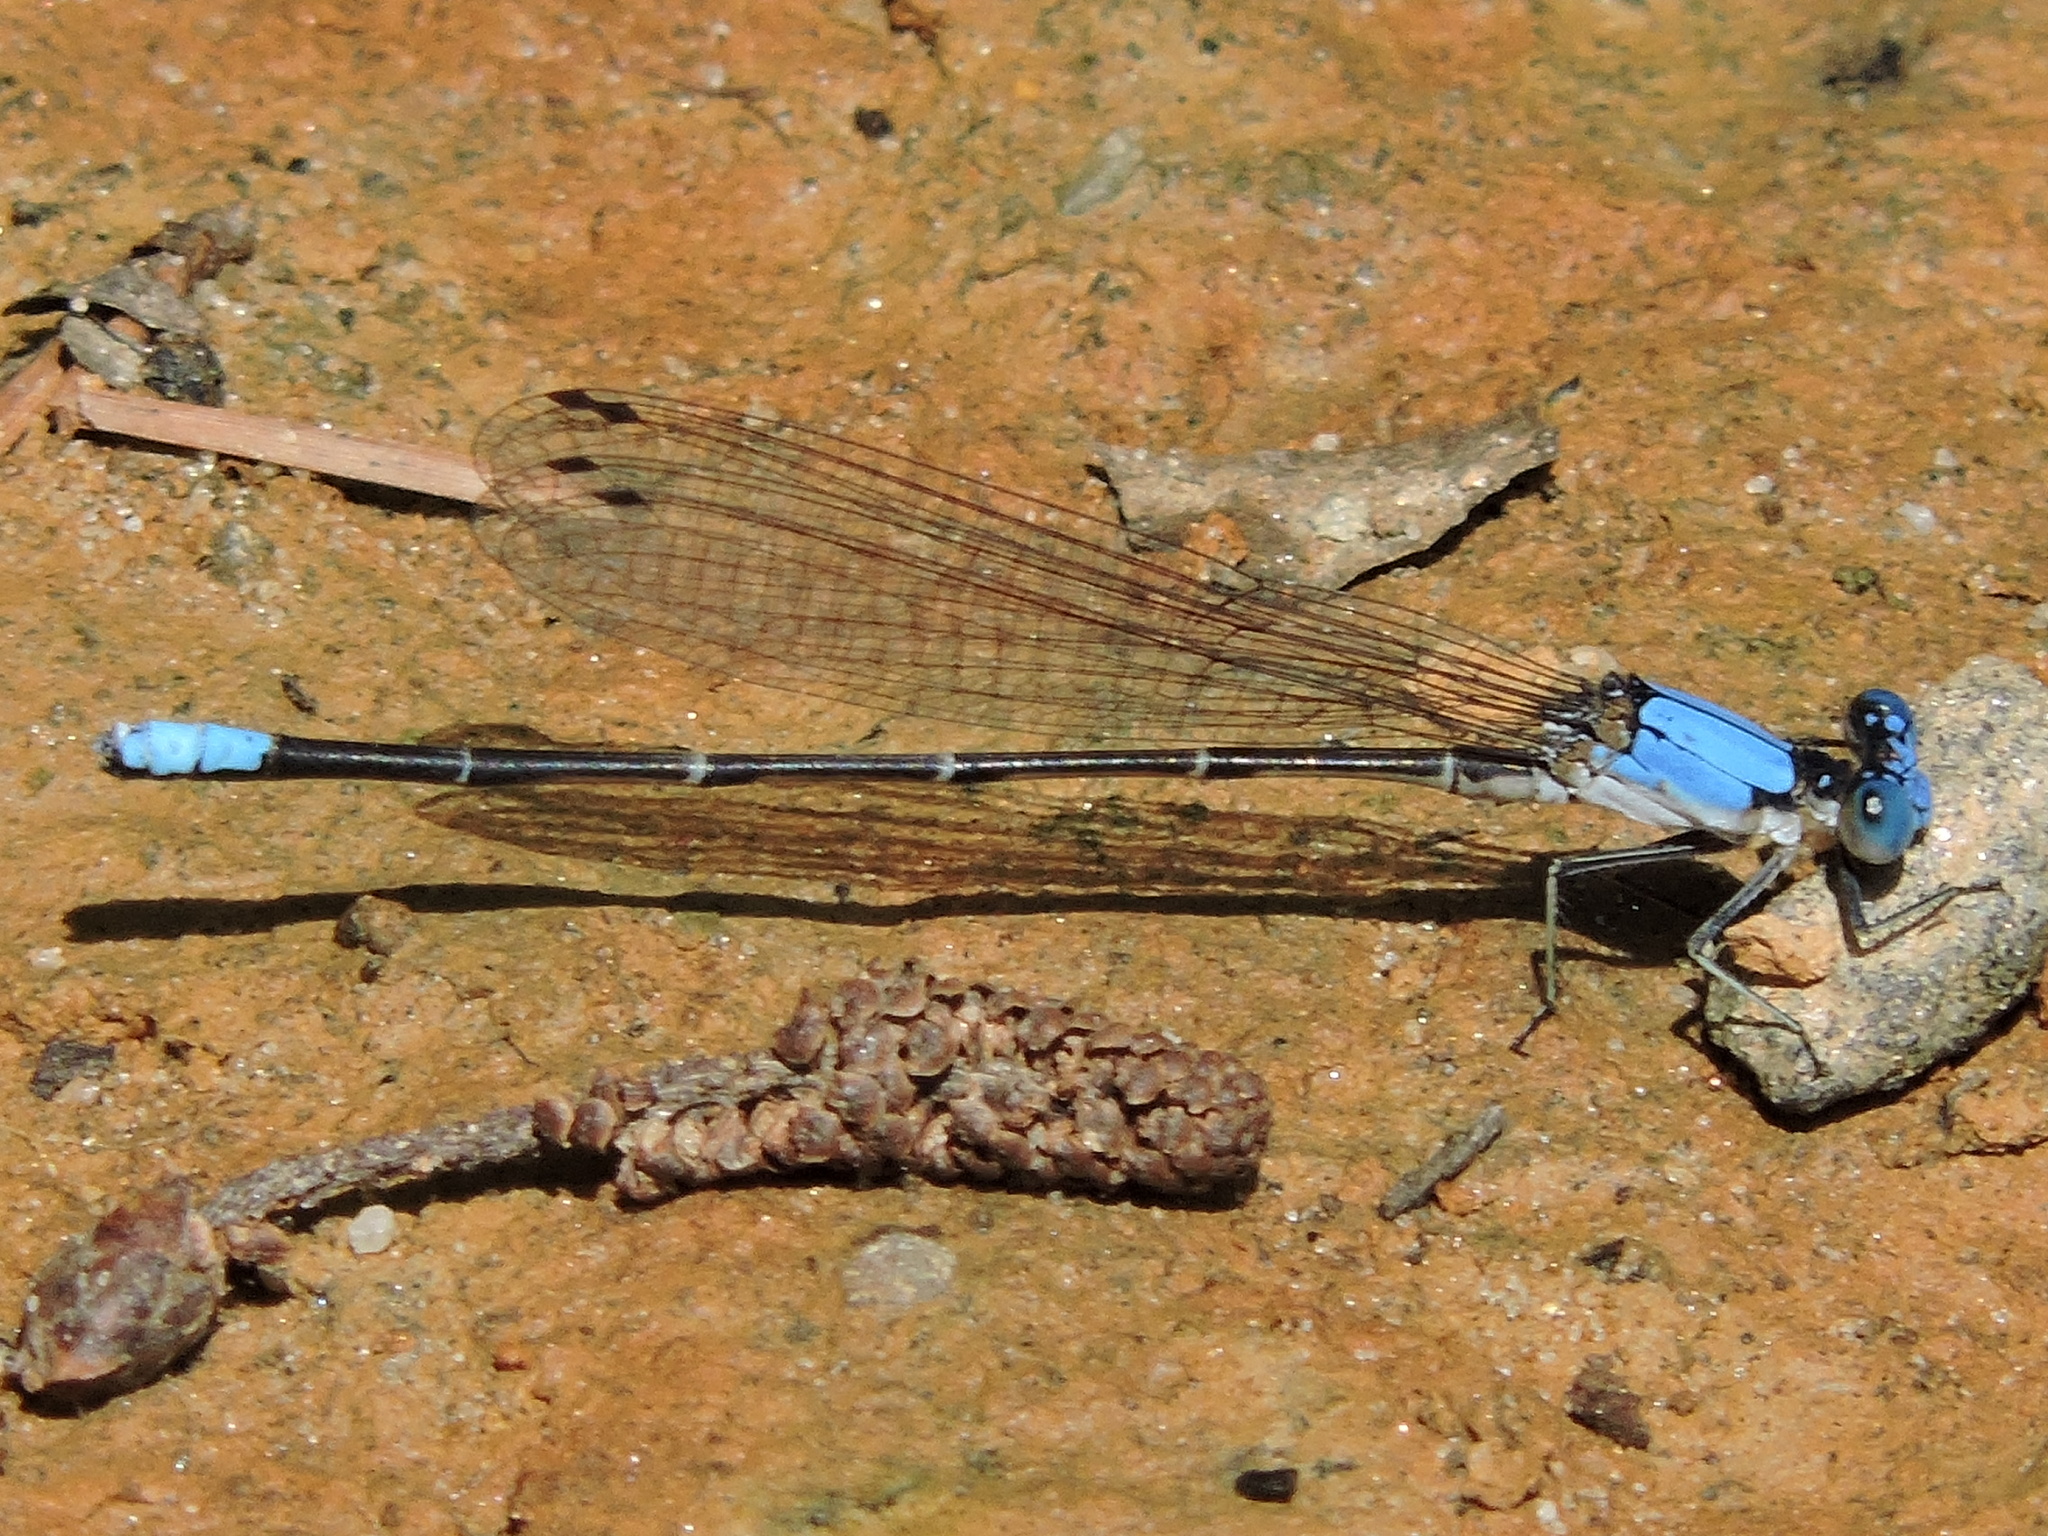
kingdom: Animalia
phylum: Arthropoda
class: Insecta
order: Odonata
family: Coenagrionidae
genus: Argia
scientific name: Argia apicalis
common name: Blue-fronted dancer
